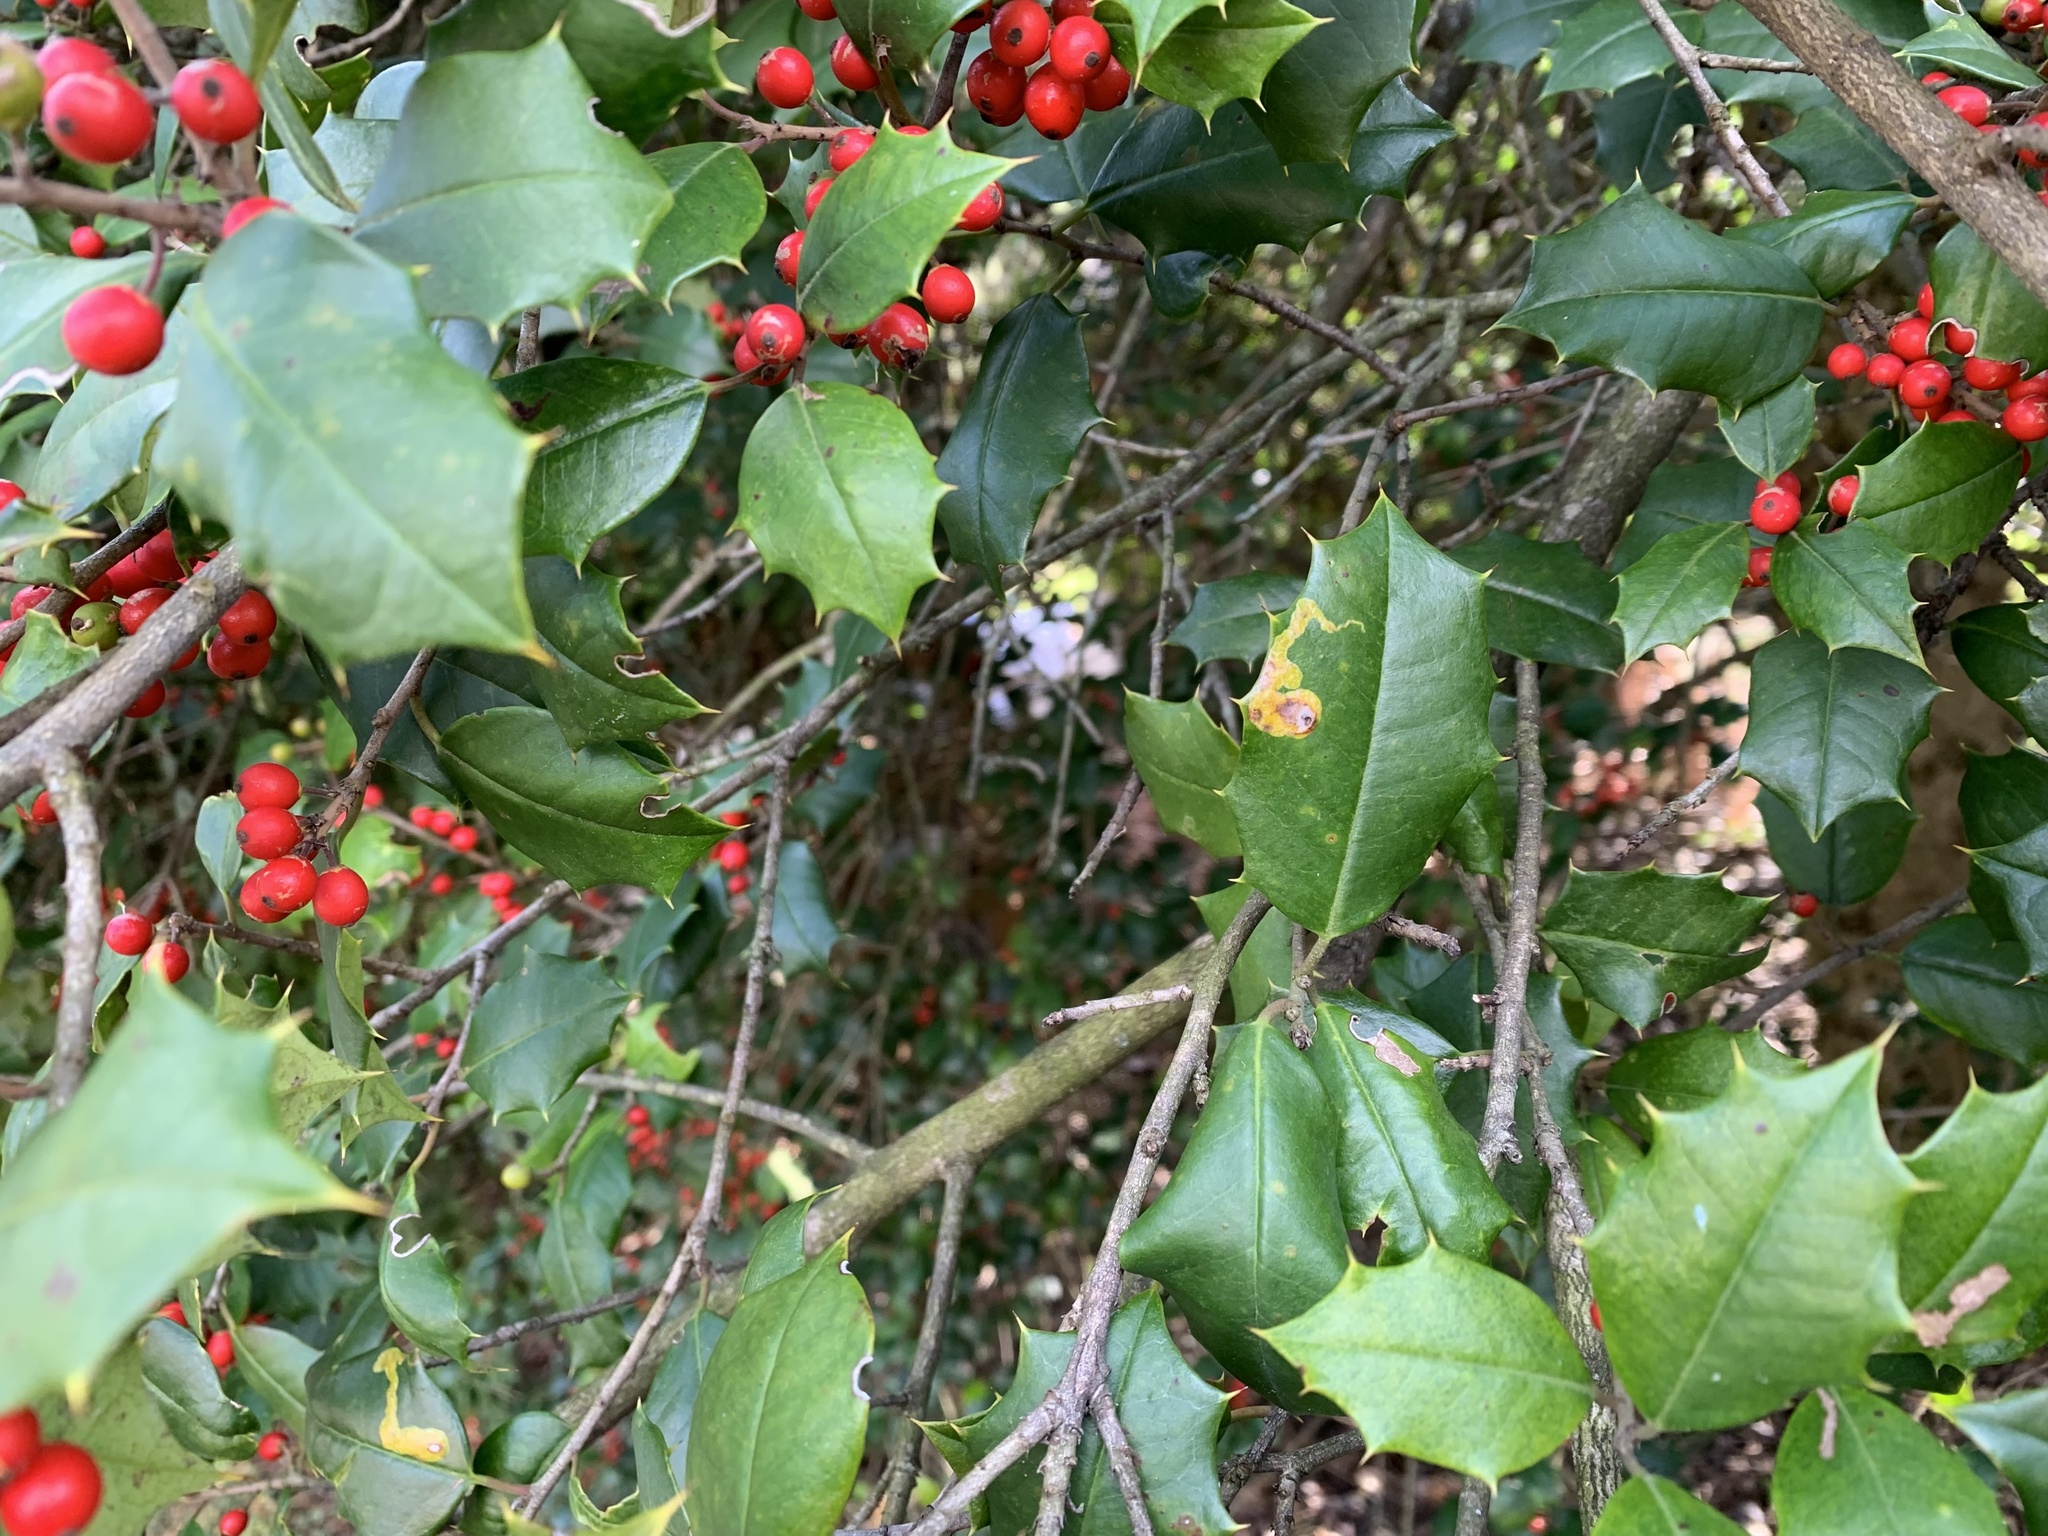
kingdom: Animalia
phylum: Arthropoda
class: Insecta
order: Diptera
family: Agromyzidae
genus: Phytomyza
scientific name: Phytomyza ilicicola
